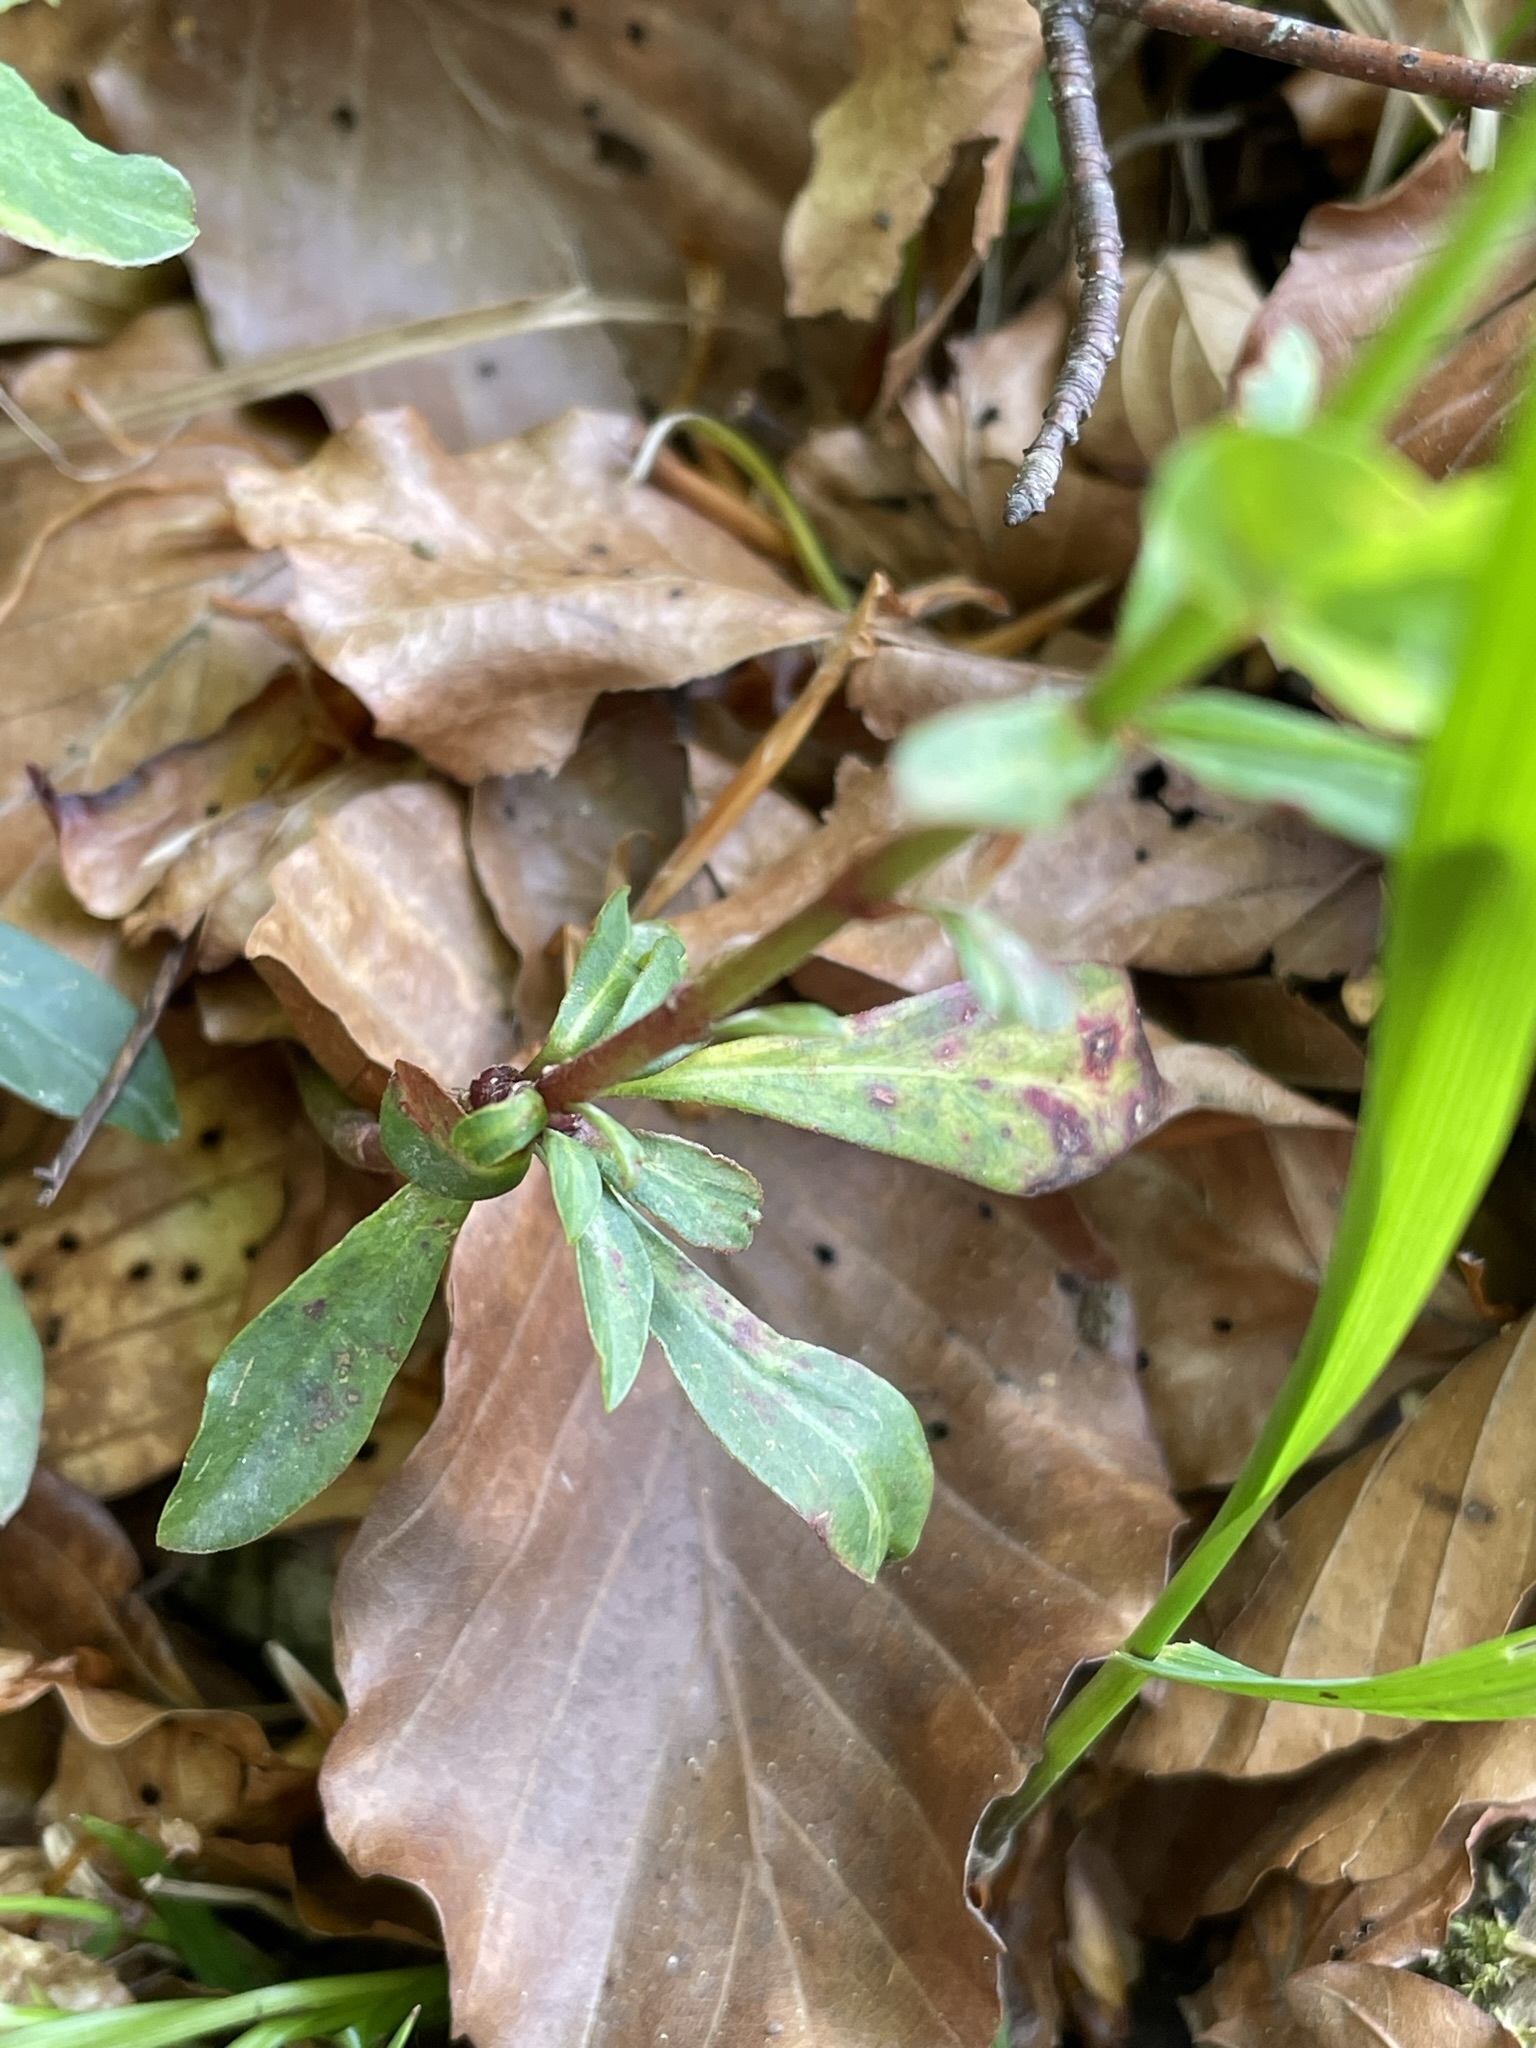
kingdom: Plantae
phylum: Tracheophyta
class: Magnoliopsida
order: Malpighiales
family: Euphorbiaceae
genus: Euphorbia
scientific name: Euphorbia amygdaloides
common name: Wood spurge
